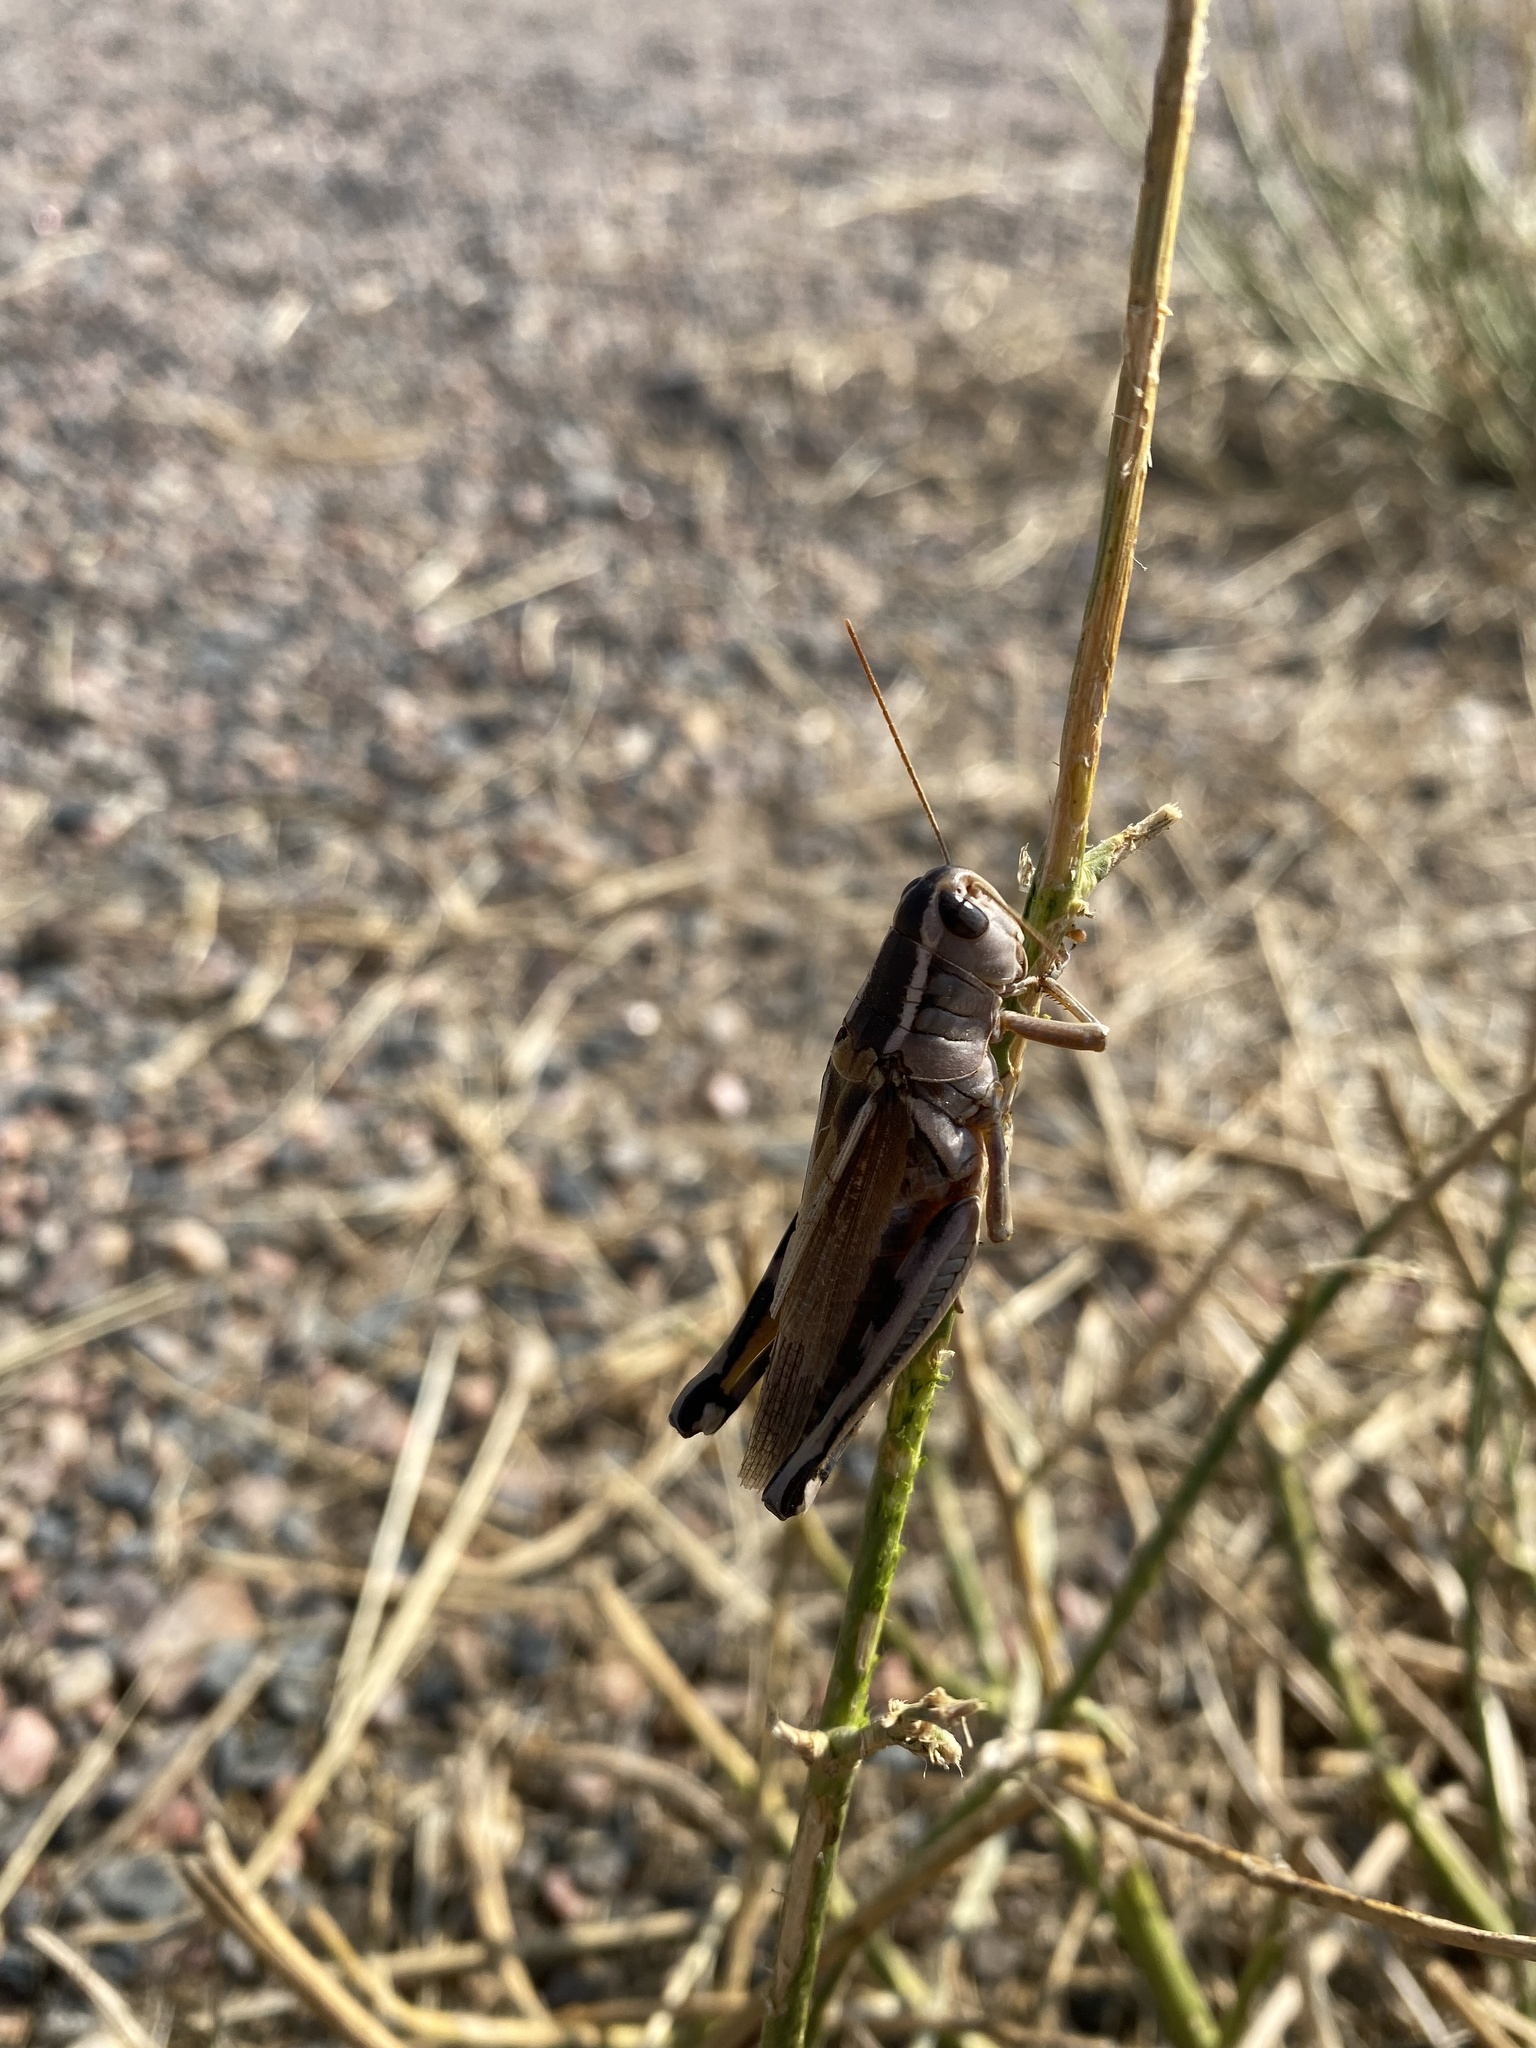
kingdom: Animalia
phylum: Arthropoda
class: Insecta
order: Orthoptera
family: Acrididae
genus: Melanoplus
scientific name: Melanoplus bivittatus
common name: Two-striped grasshopper
